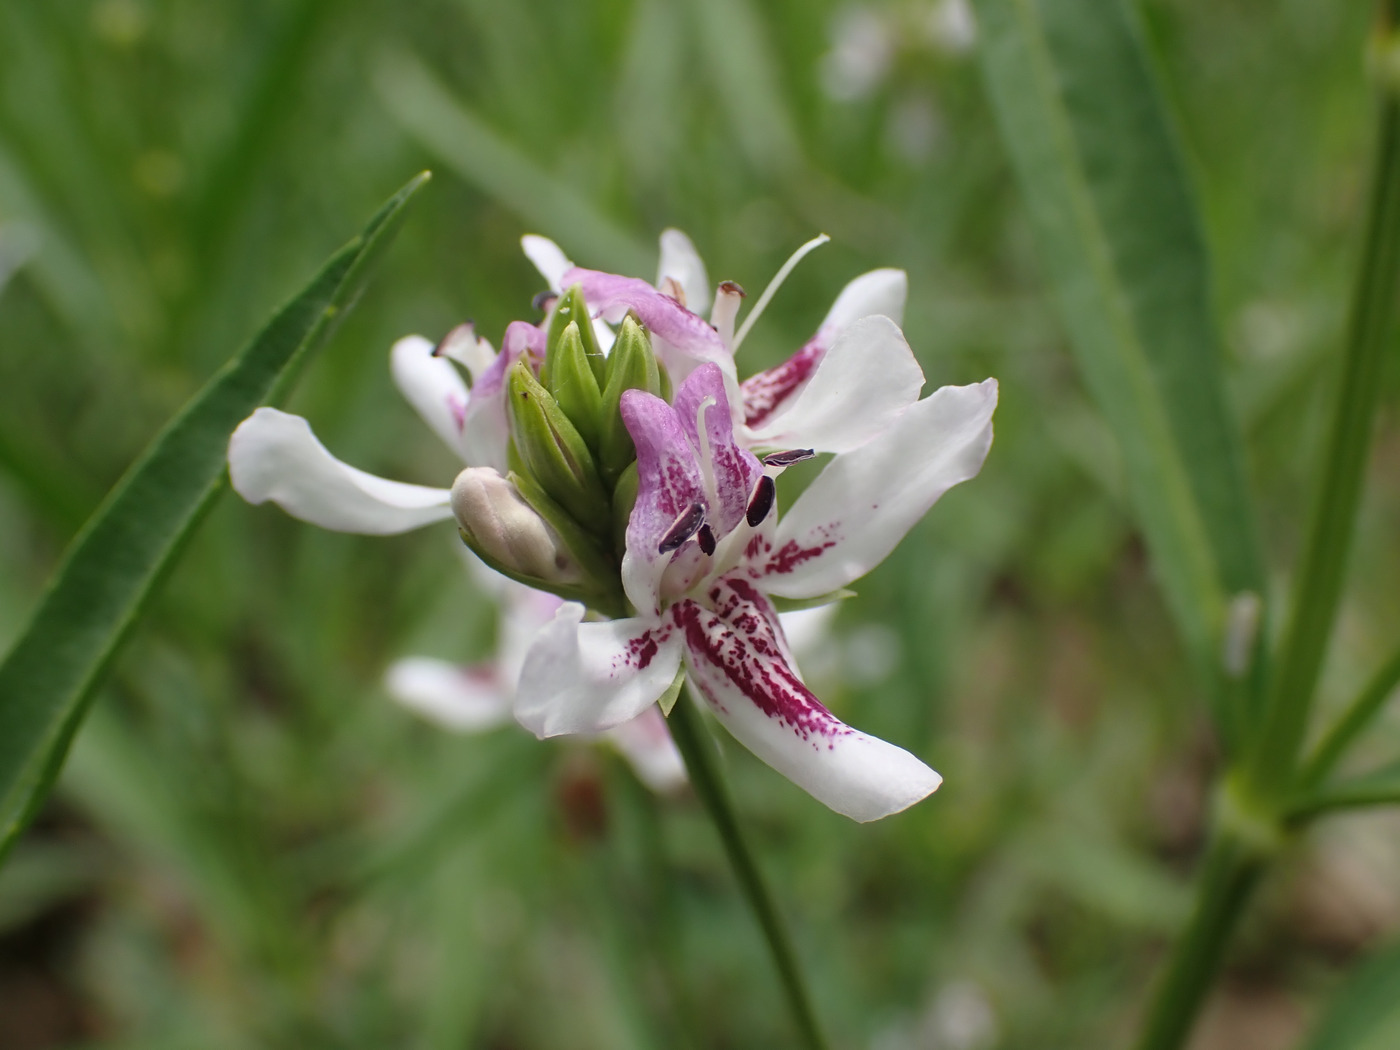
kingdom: Plantae
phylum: Tracheophyta
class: Magnoliopsida
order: Lamiales
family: Acanthaceae
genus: Dianthera
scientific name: Dianthera americana
